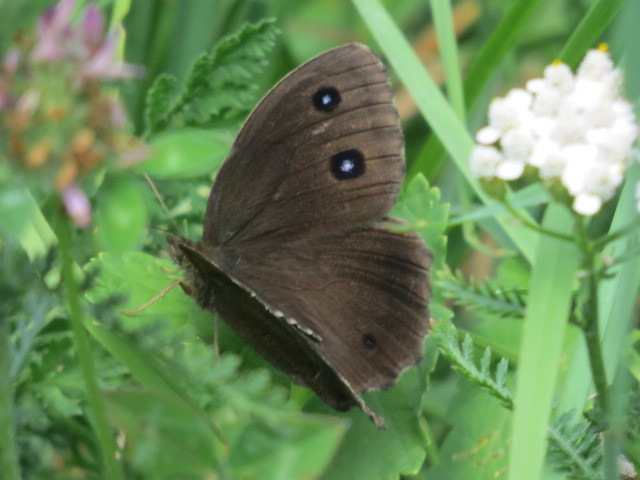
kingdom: Animalia
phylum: Arthropoda
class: Insecta
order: Lepidoptera
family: Nymphalidae
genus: Minois
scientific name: Minois dryas
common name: Dryad
